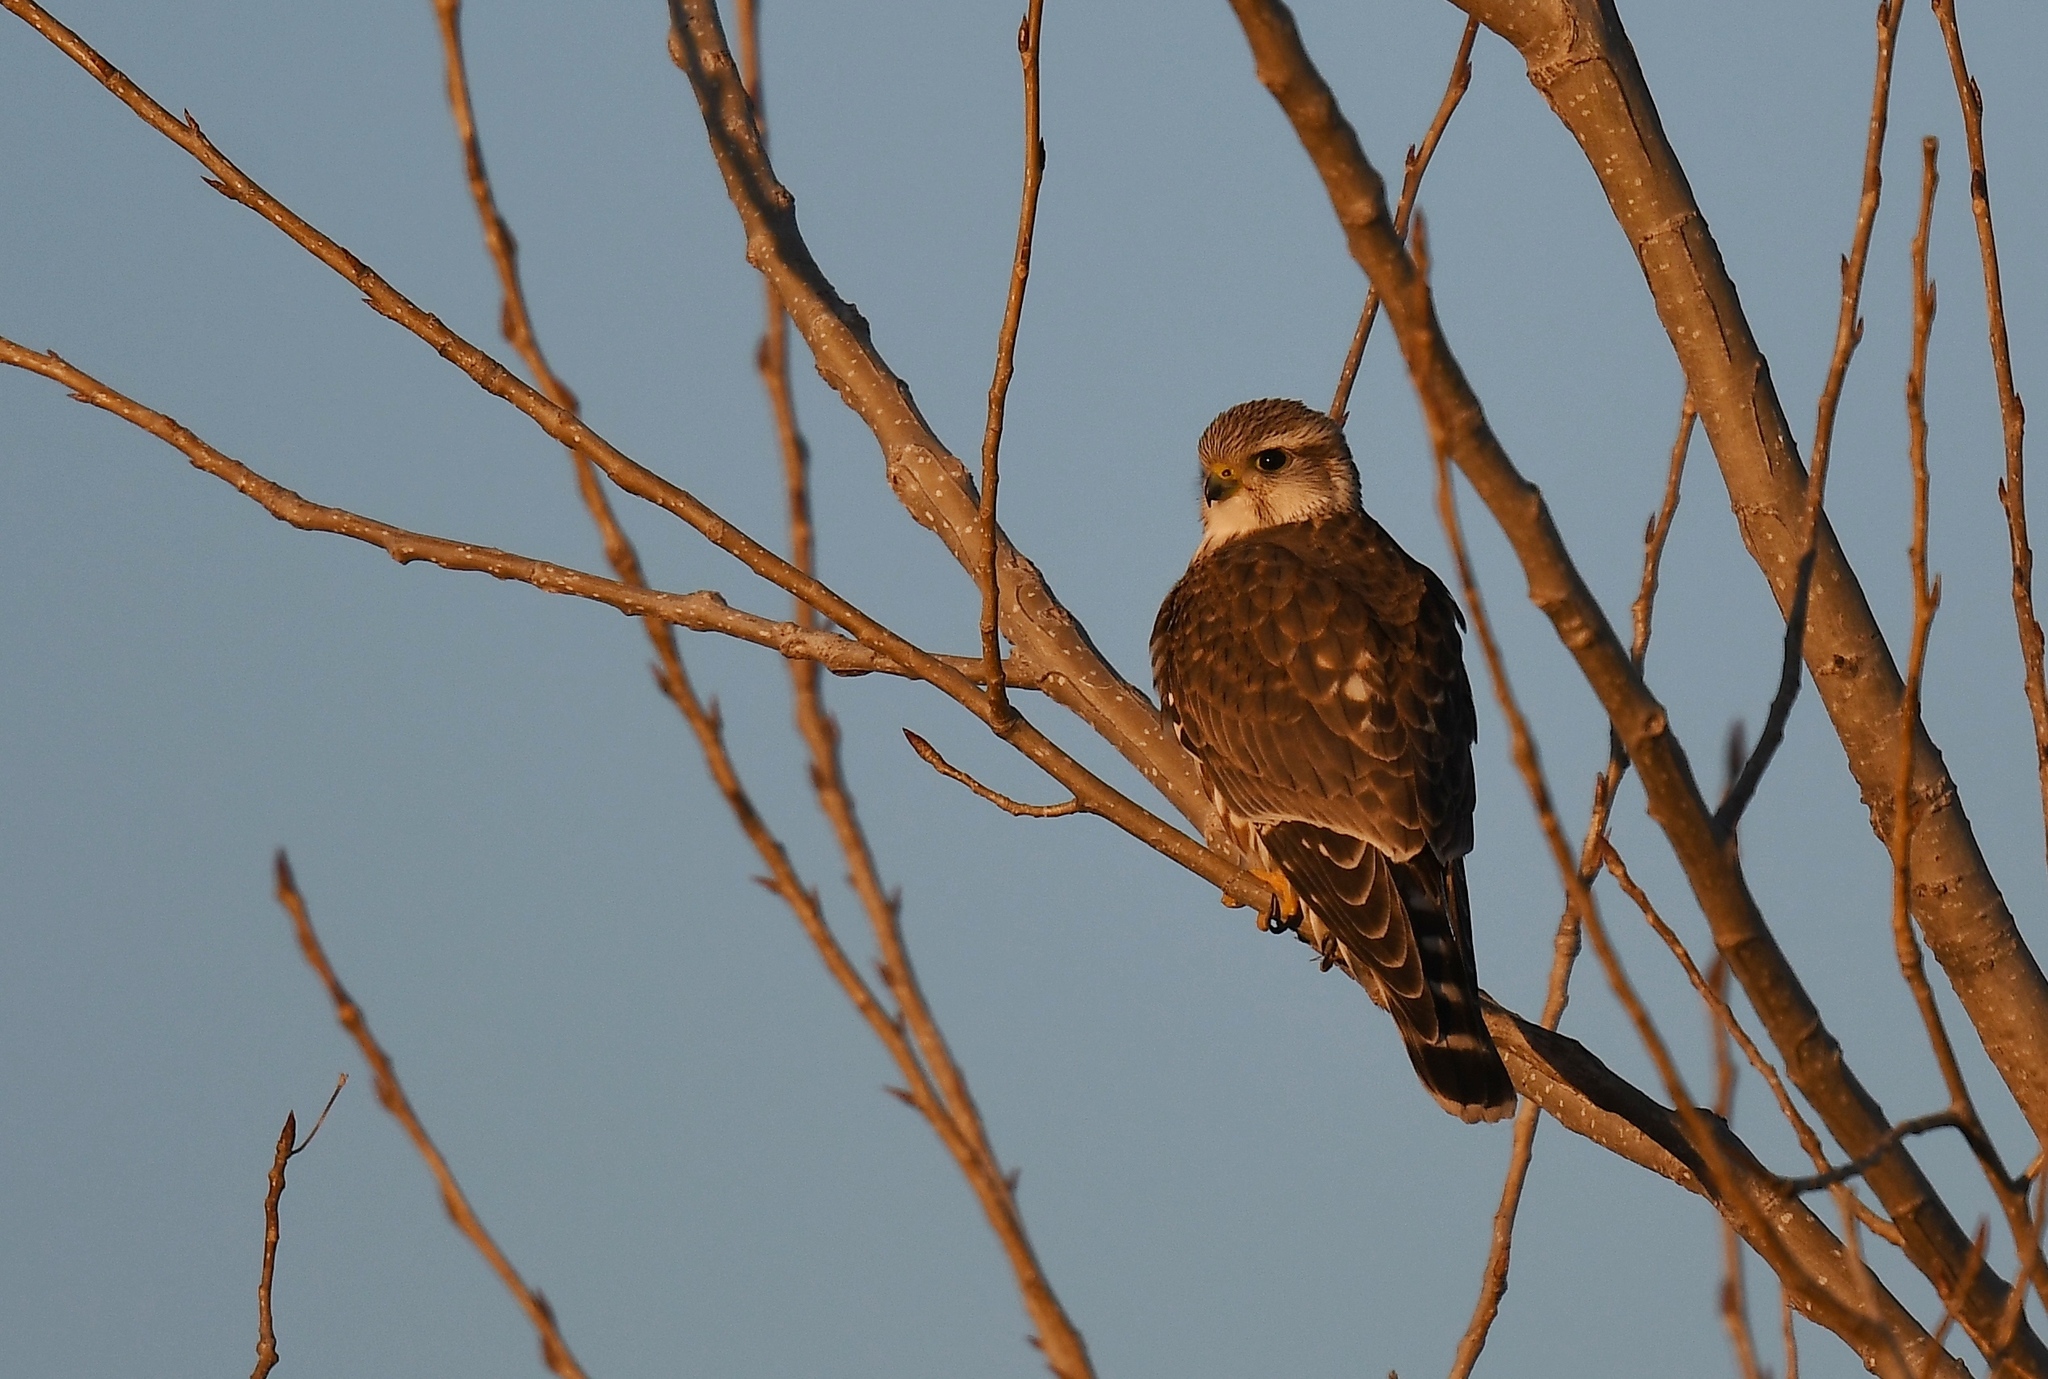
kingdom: Animalia
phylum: Chordata
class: Aves
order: Falconiformes
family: Falconidae
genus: Falco
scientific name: Falco columbarius
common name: Merlin
